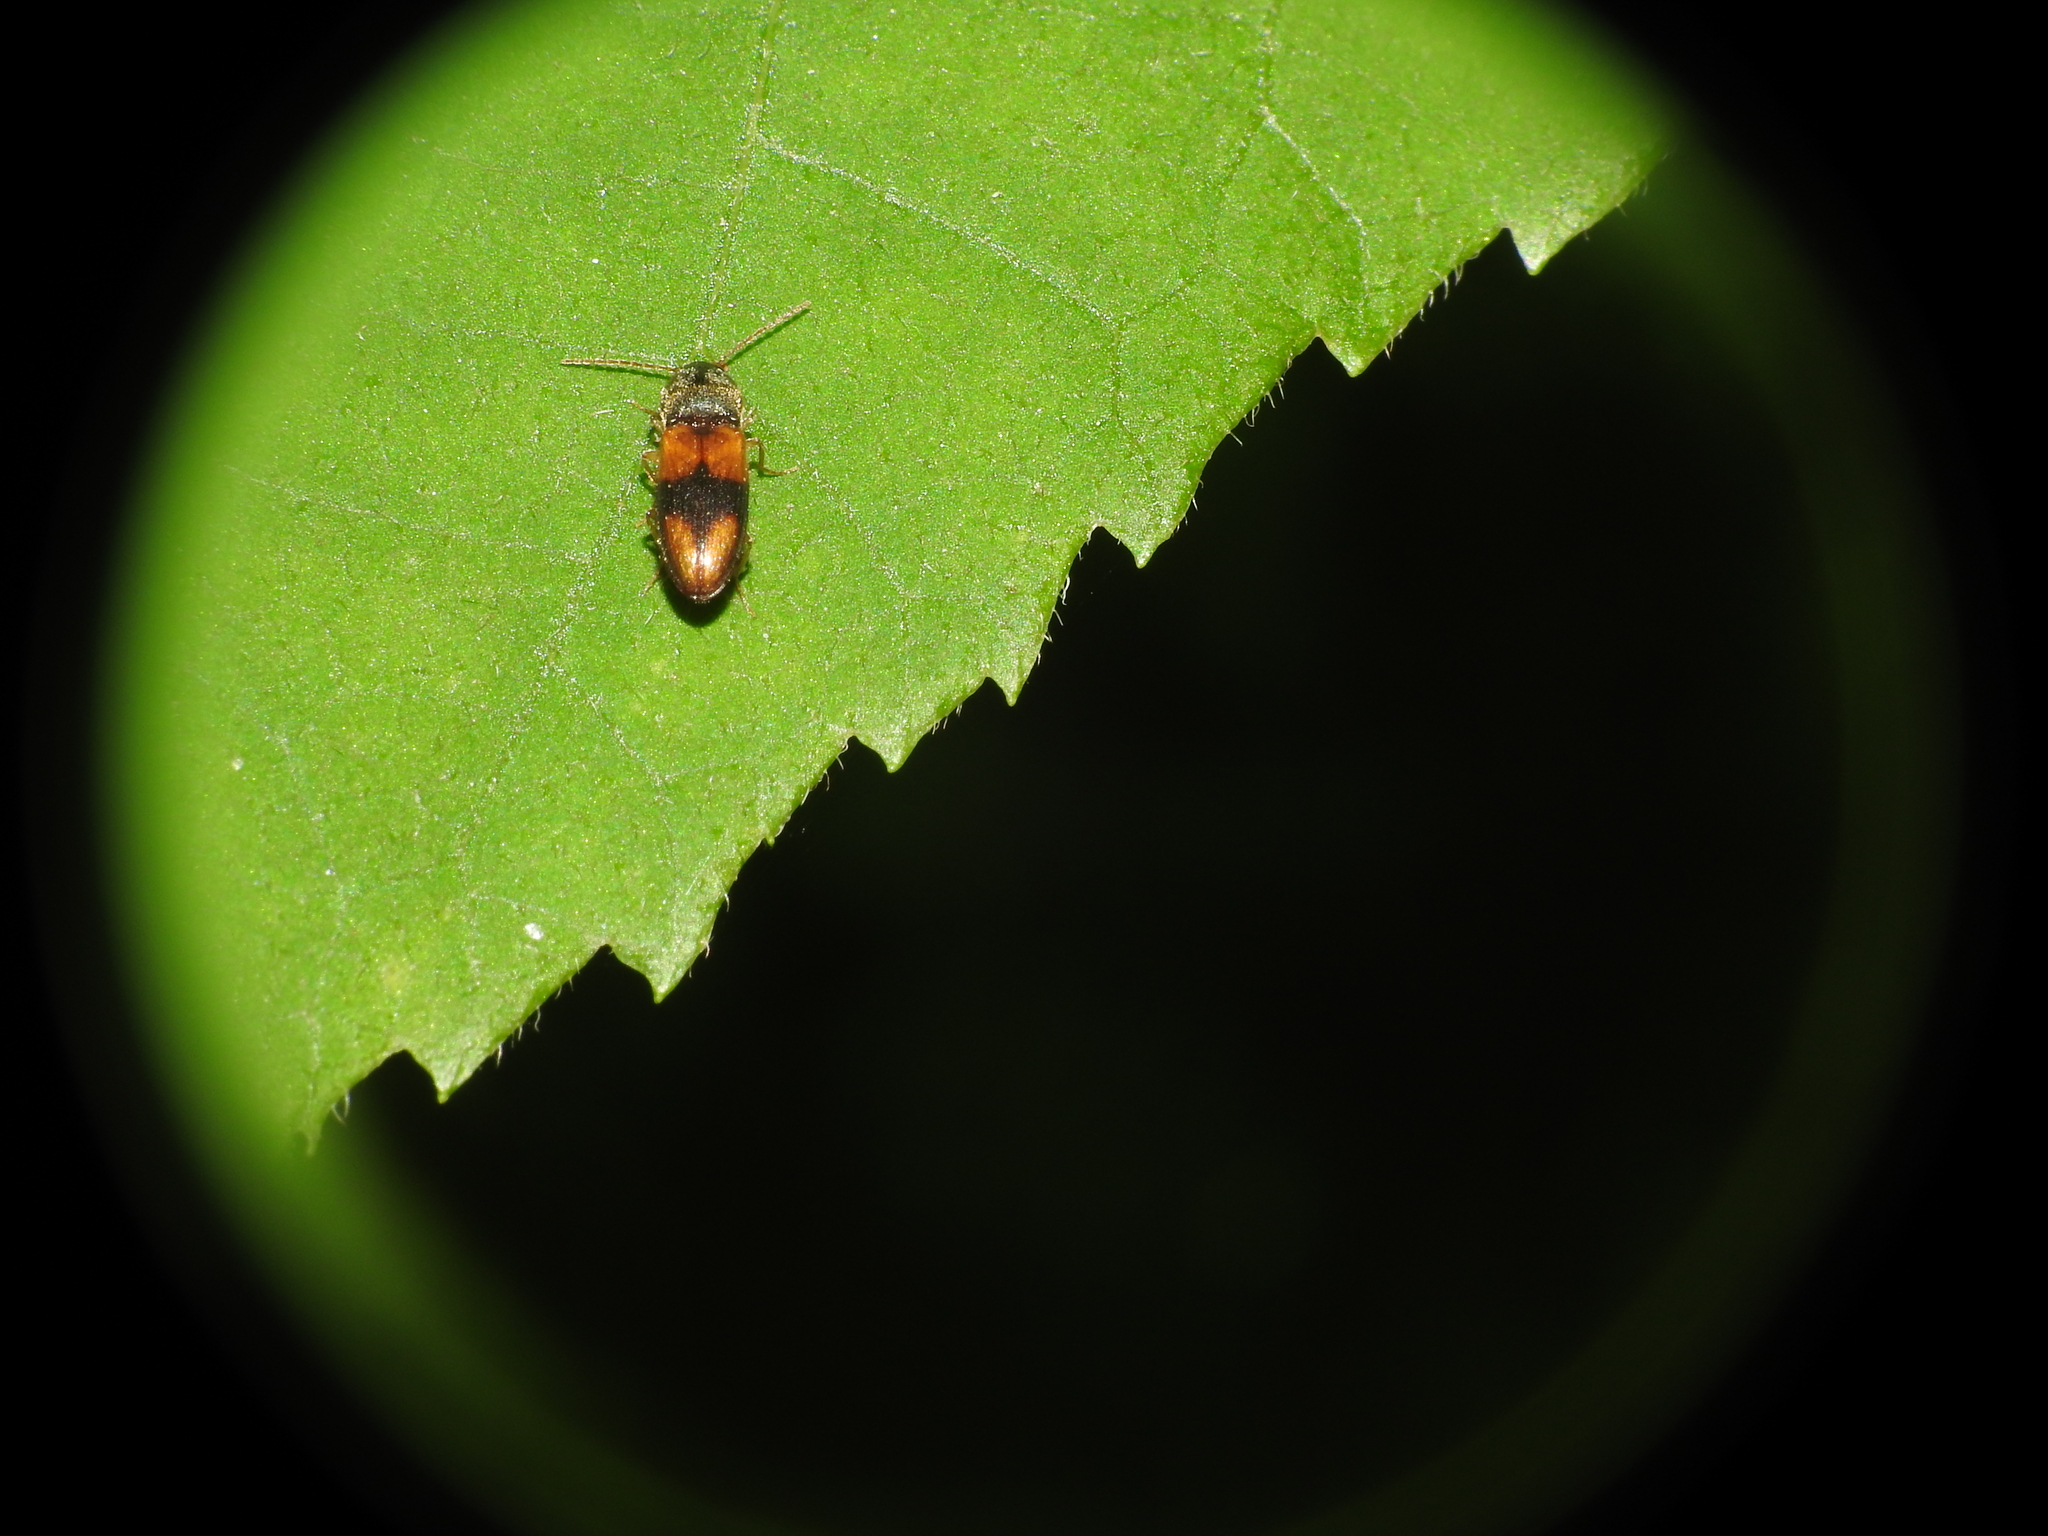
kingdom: Animalia
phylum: Arthropoda
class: Insecta
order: Coleoptera
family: Elateridae
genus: Horistonotus
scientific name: Horistonotus curiatus
